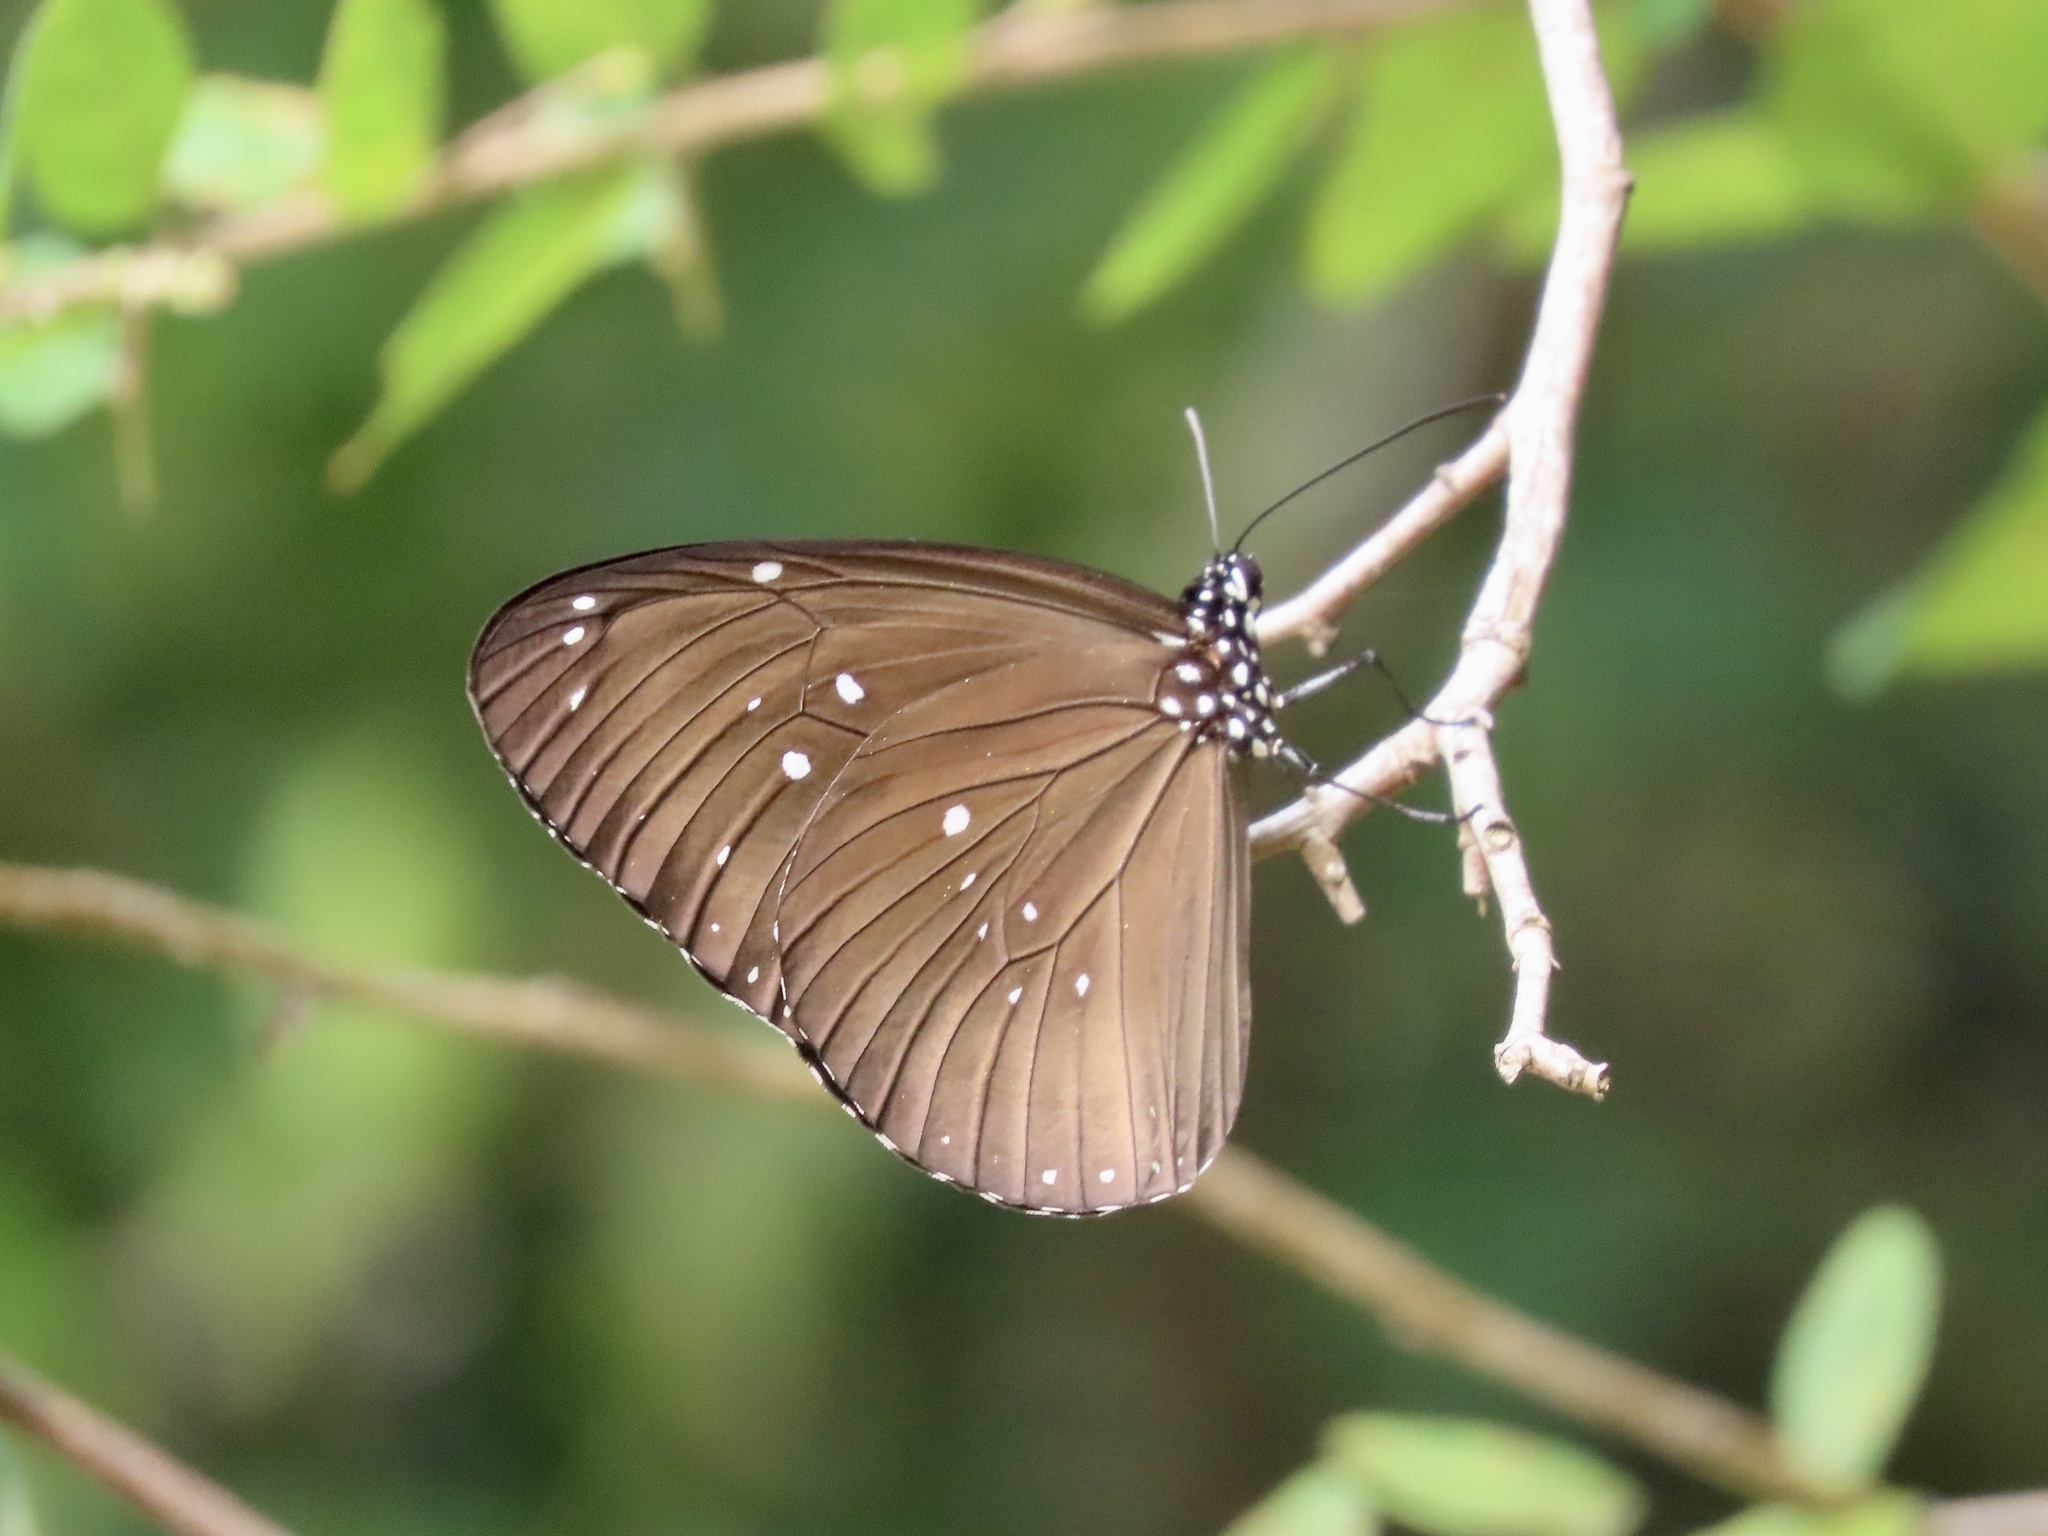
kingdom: Animalia
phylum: Arthropoda
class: Insecta
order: Lepidoptera
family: Nymphalidae
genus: Euploea
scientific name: Euploea core
